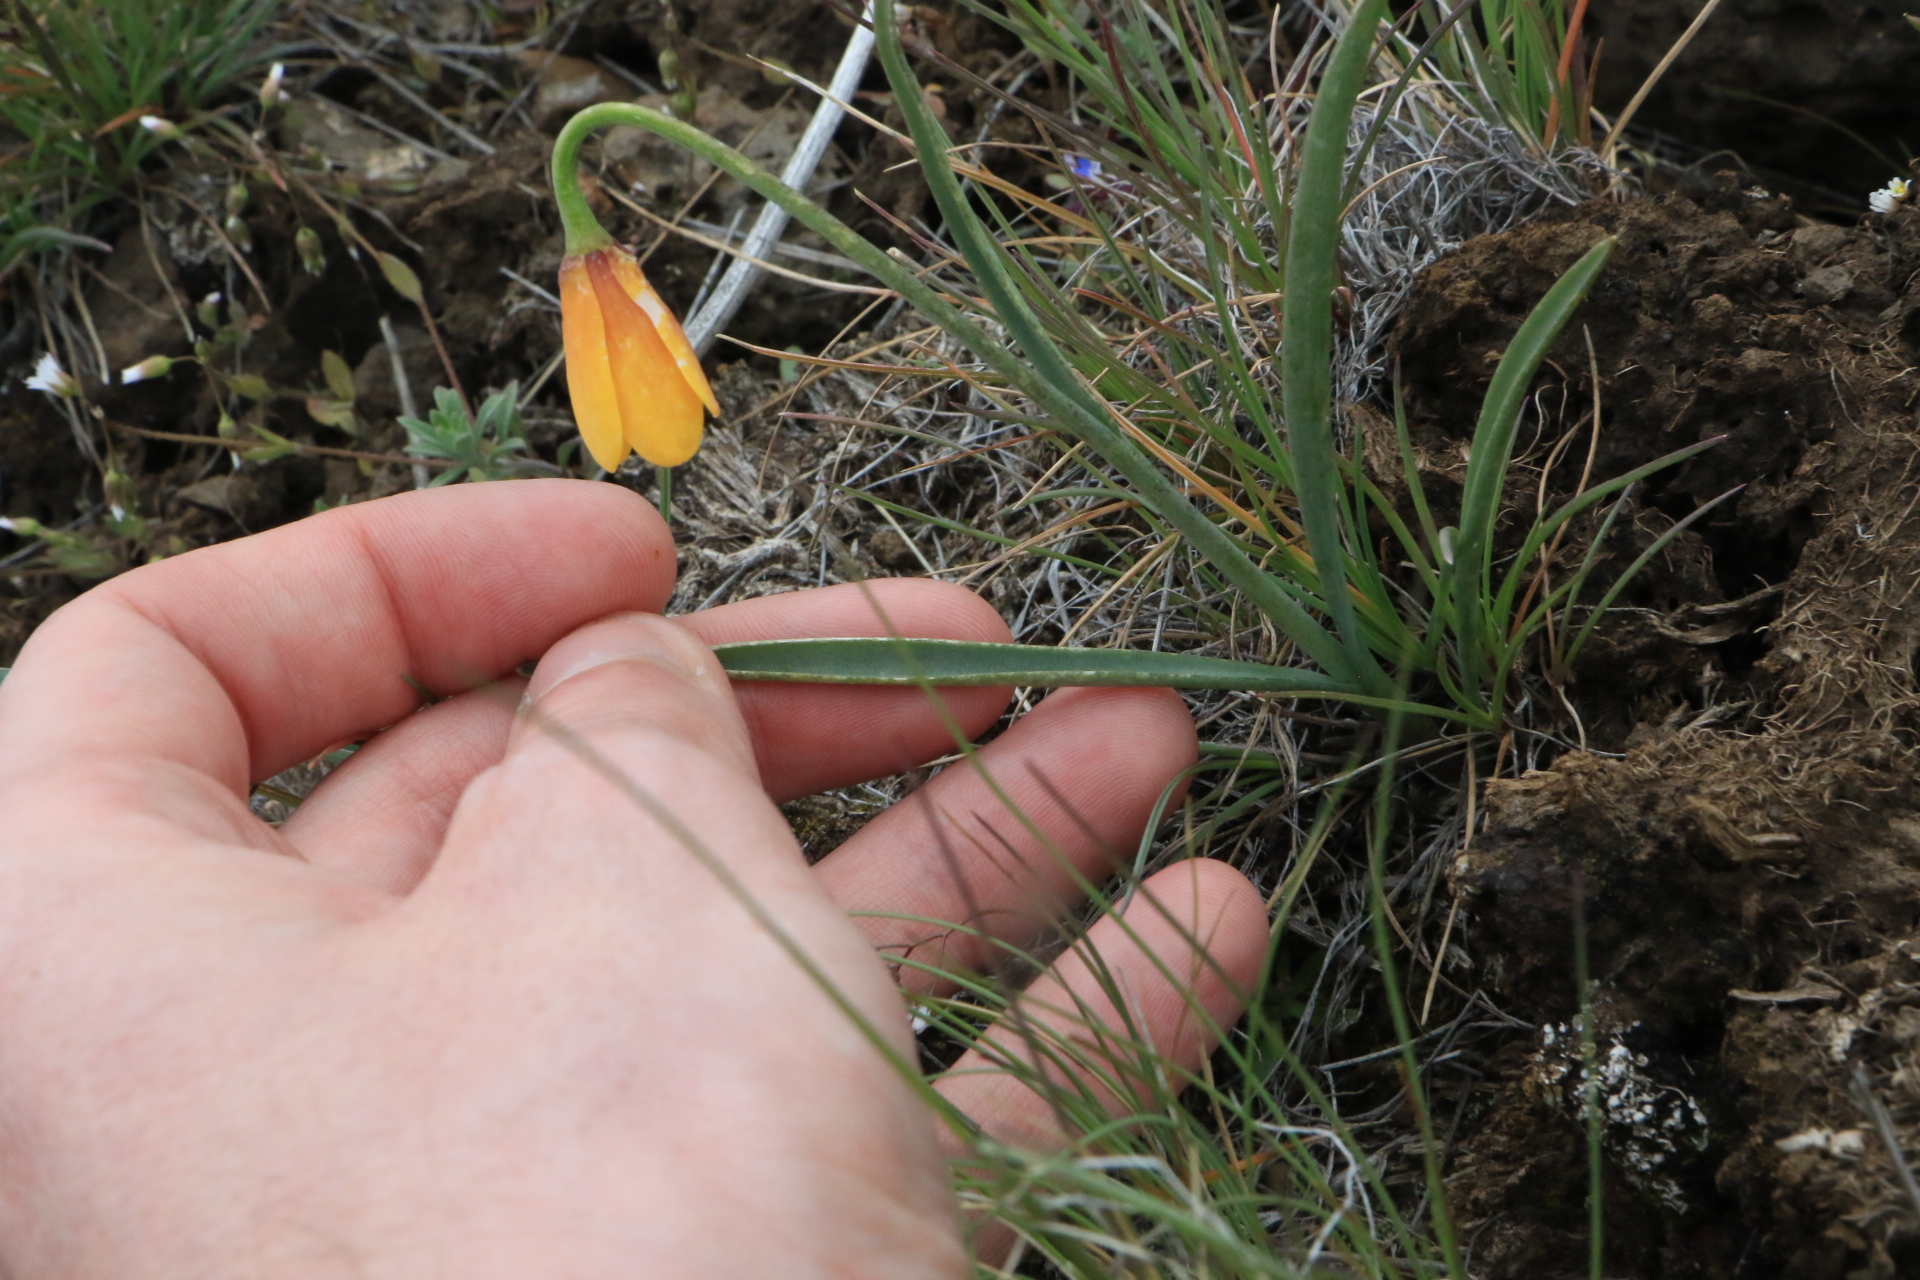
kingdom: Plantae
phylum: Tracheophyta
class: Liliopsida
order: Liliales
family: Liliaceae
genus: Fritillaria
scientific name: Fritillaria pudica
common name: Yellow fritillary
